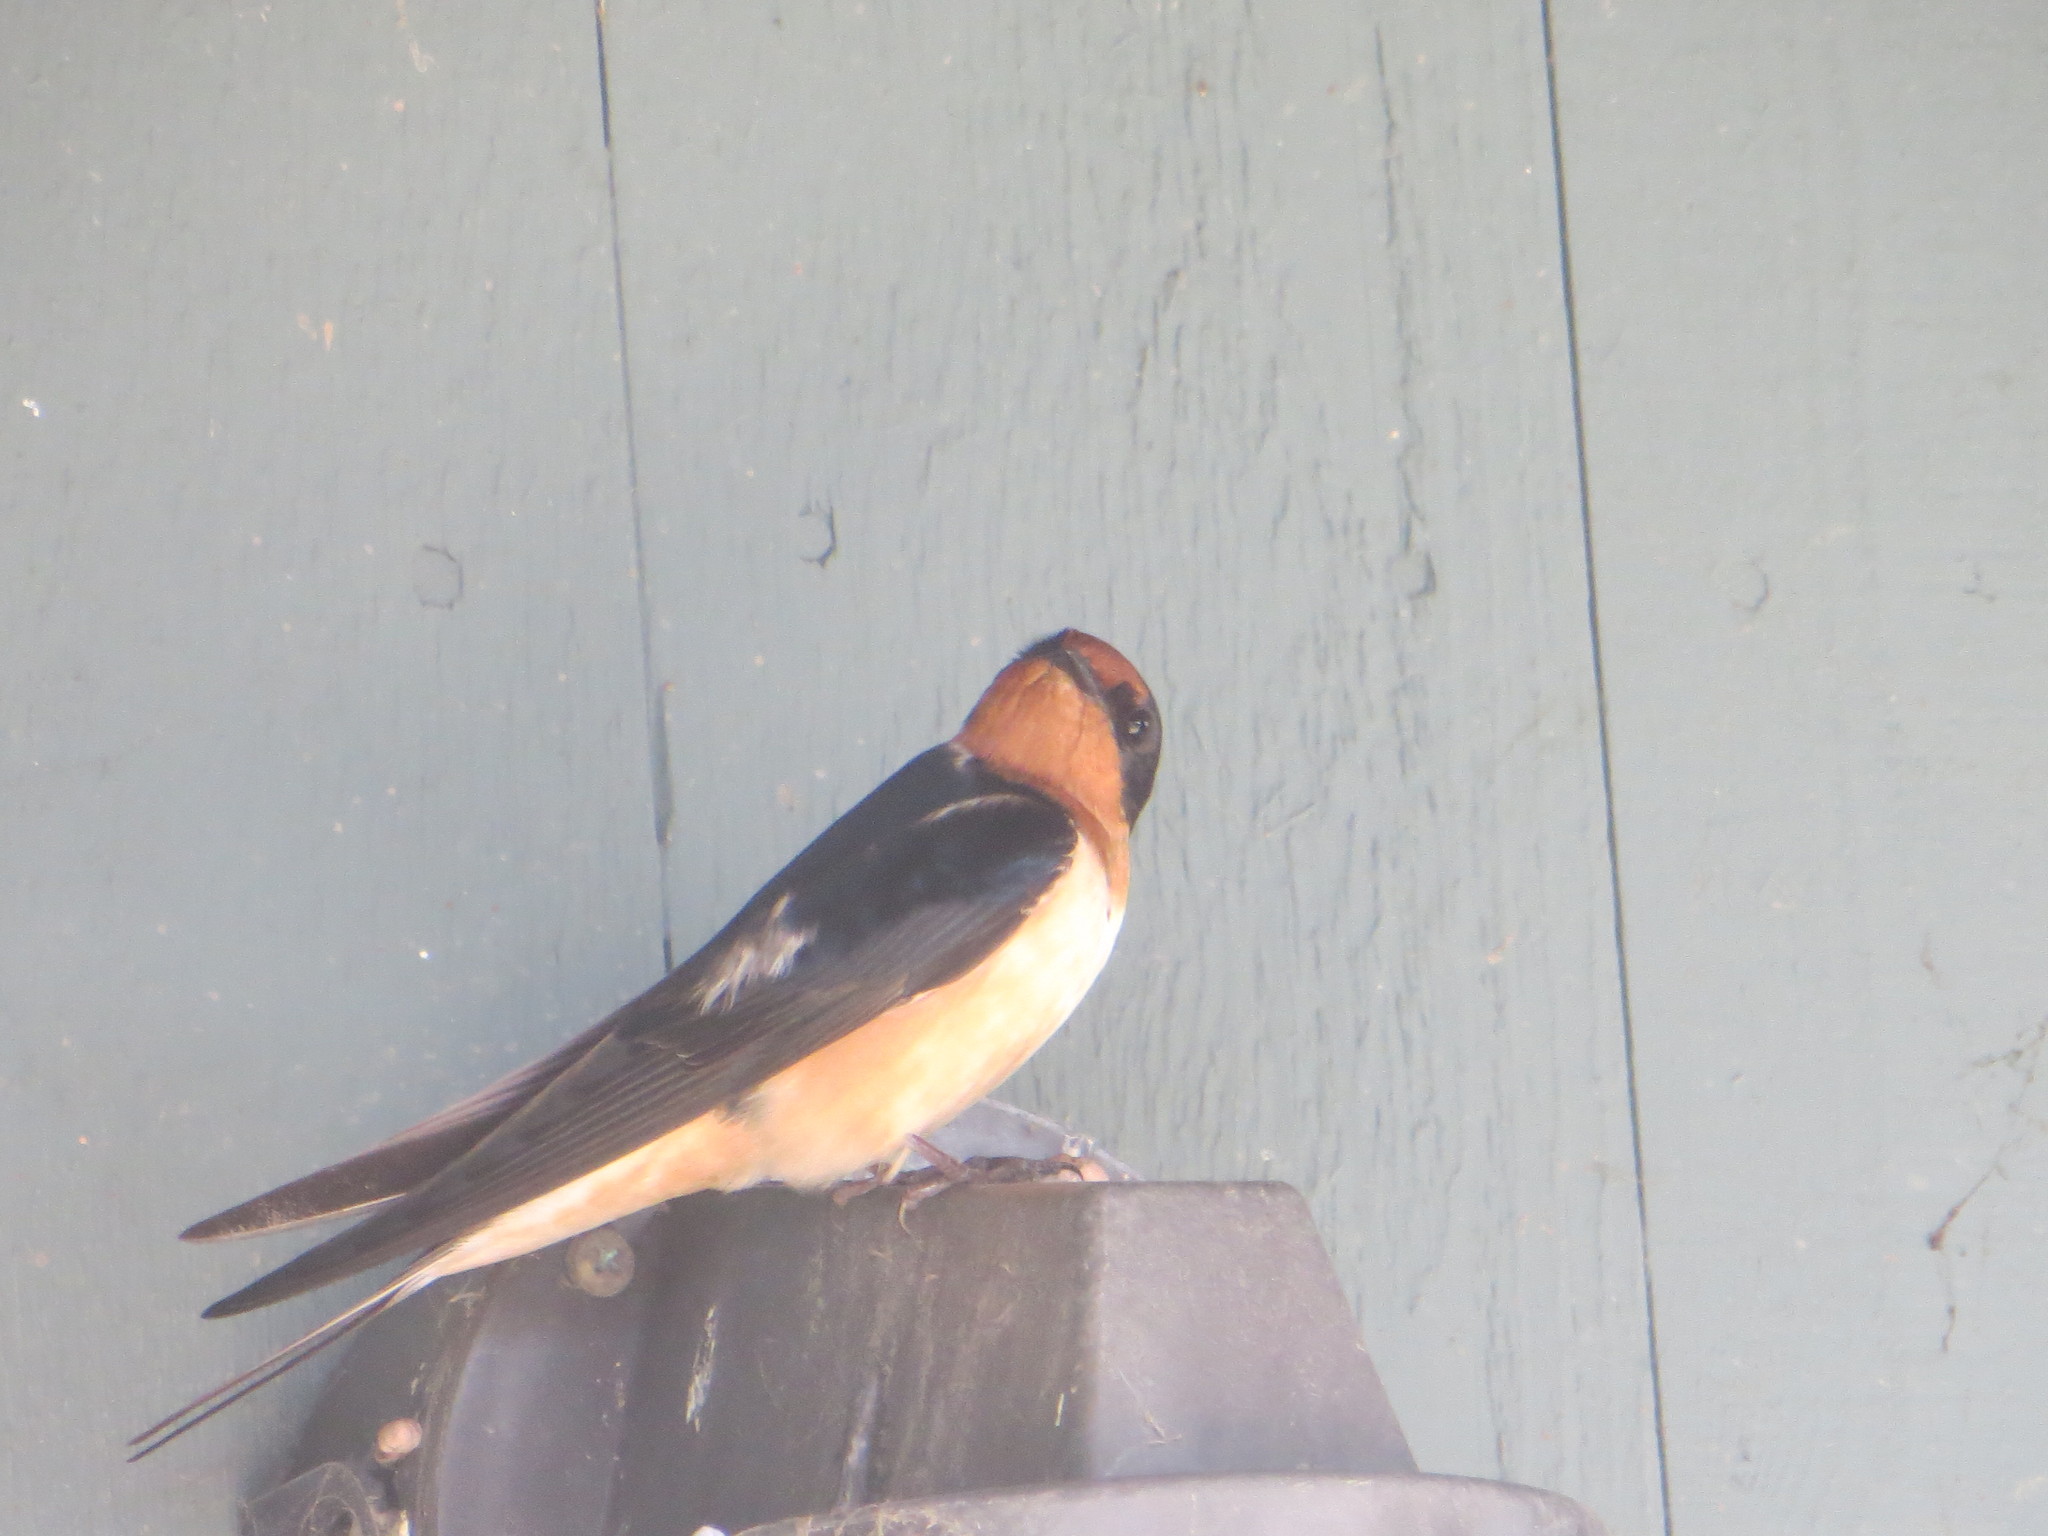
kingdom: Animalia
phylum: Chordata
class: Aves
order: Passeriformes
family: Hirundinidae
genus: Hirundo
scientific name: Hirundo rustica
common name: Barn swallow
